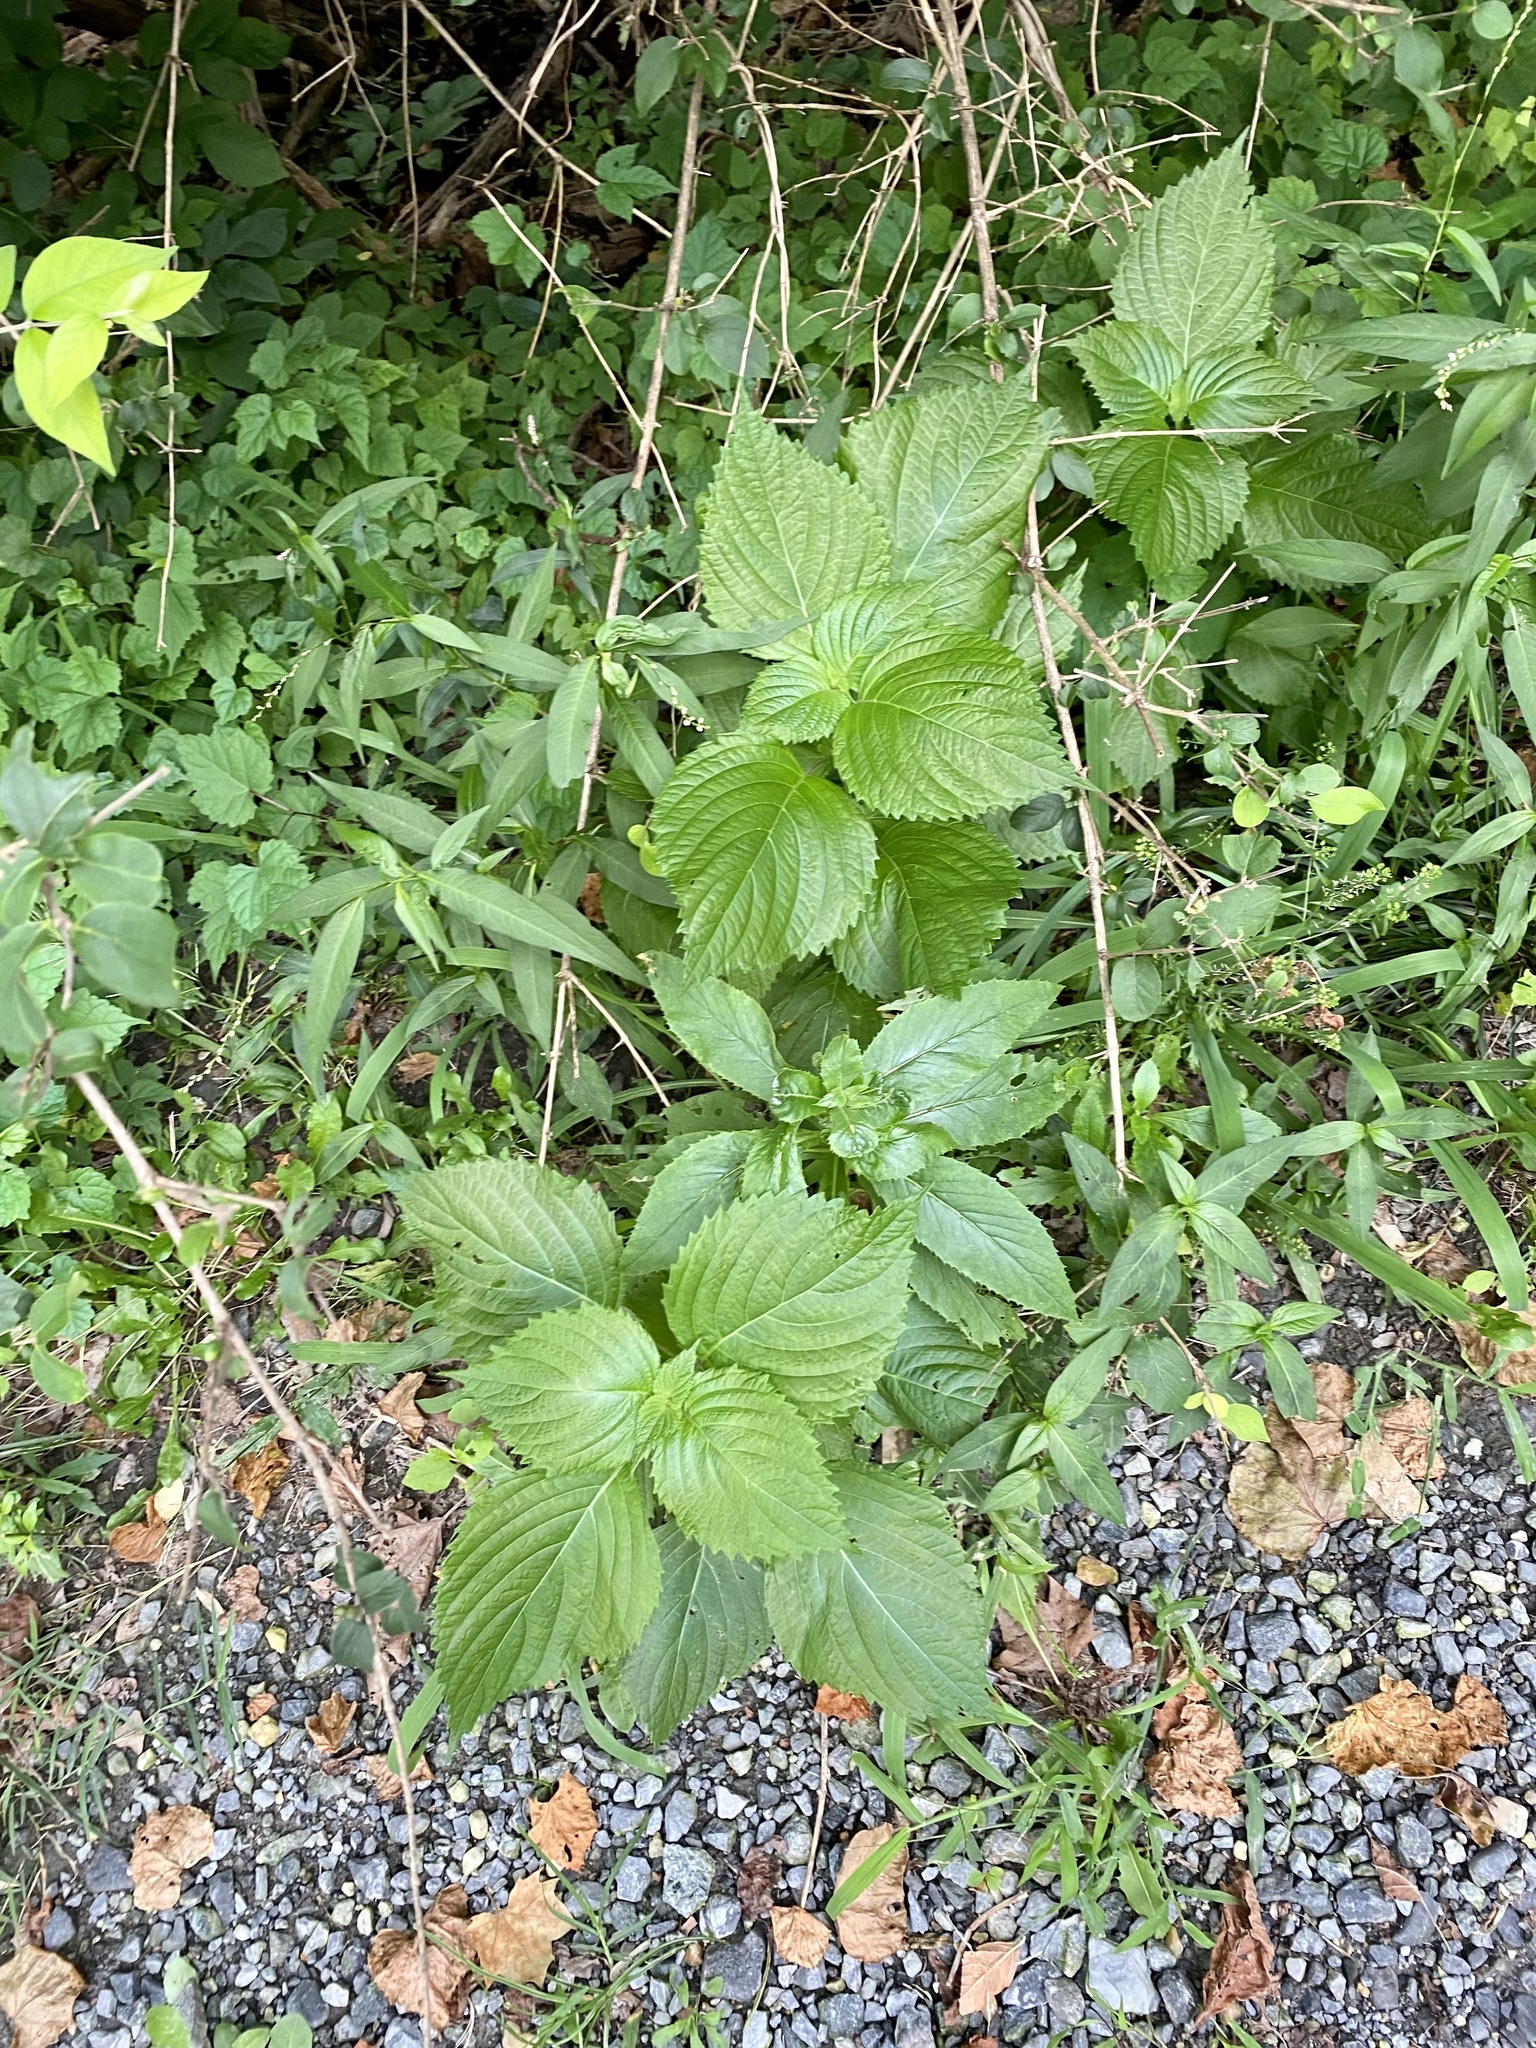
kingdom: Plantae
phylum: Tracheophyta
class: Magnoliopsida
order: Lamiales
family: Lamiaceae
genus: Perilla
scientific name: Perilla frutescens
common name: Perilla
